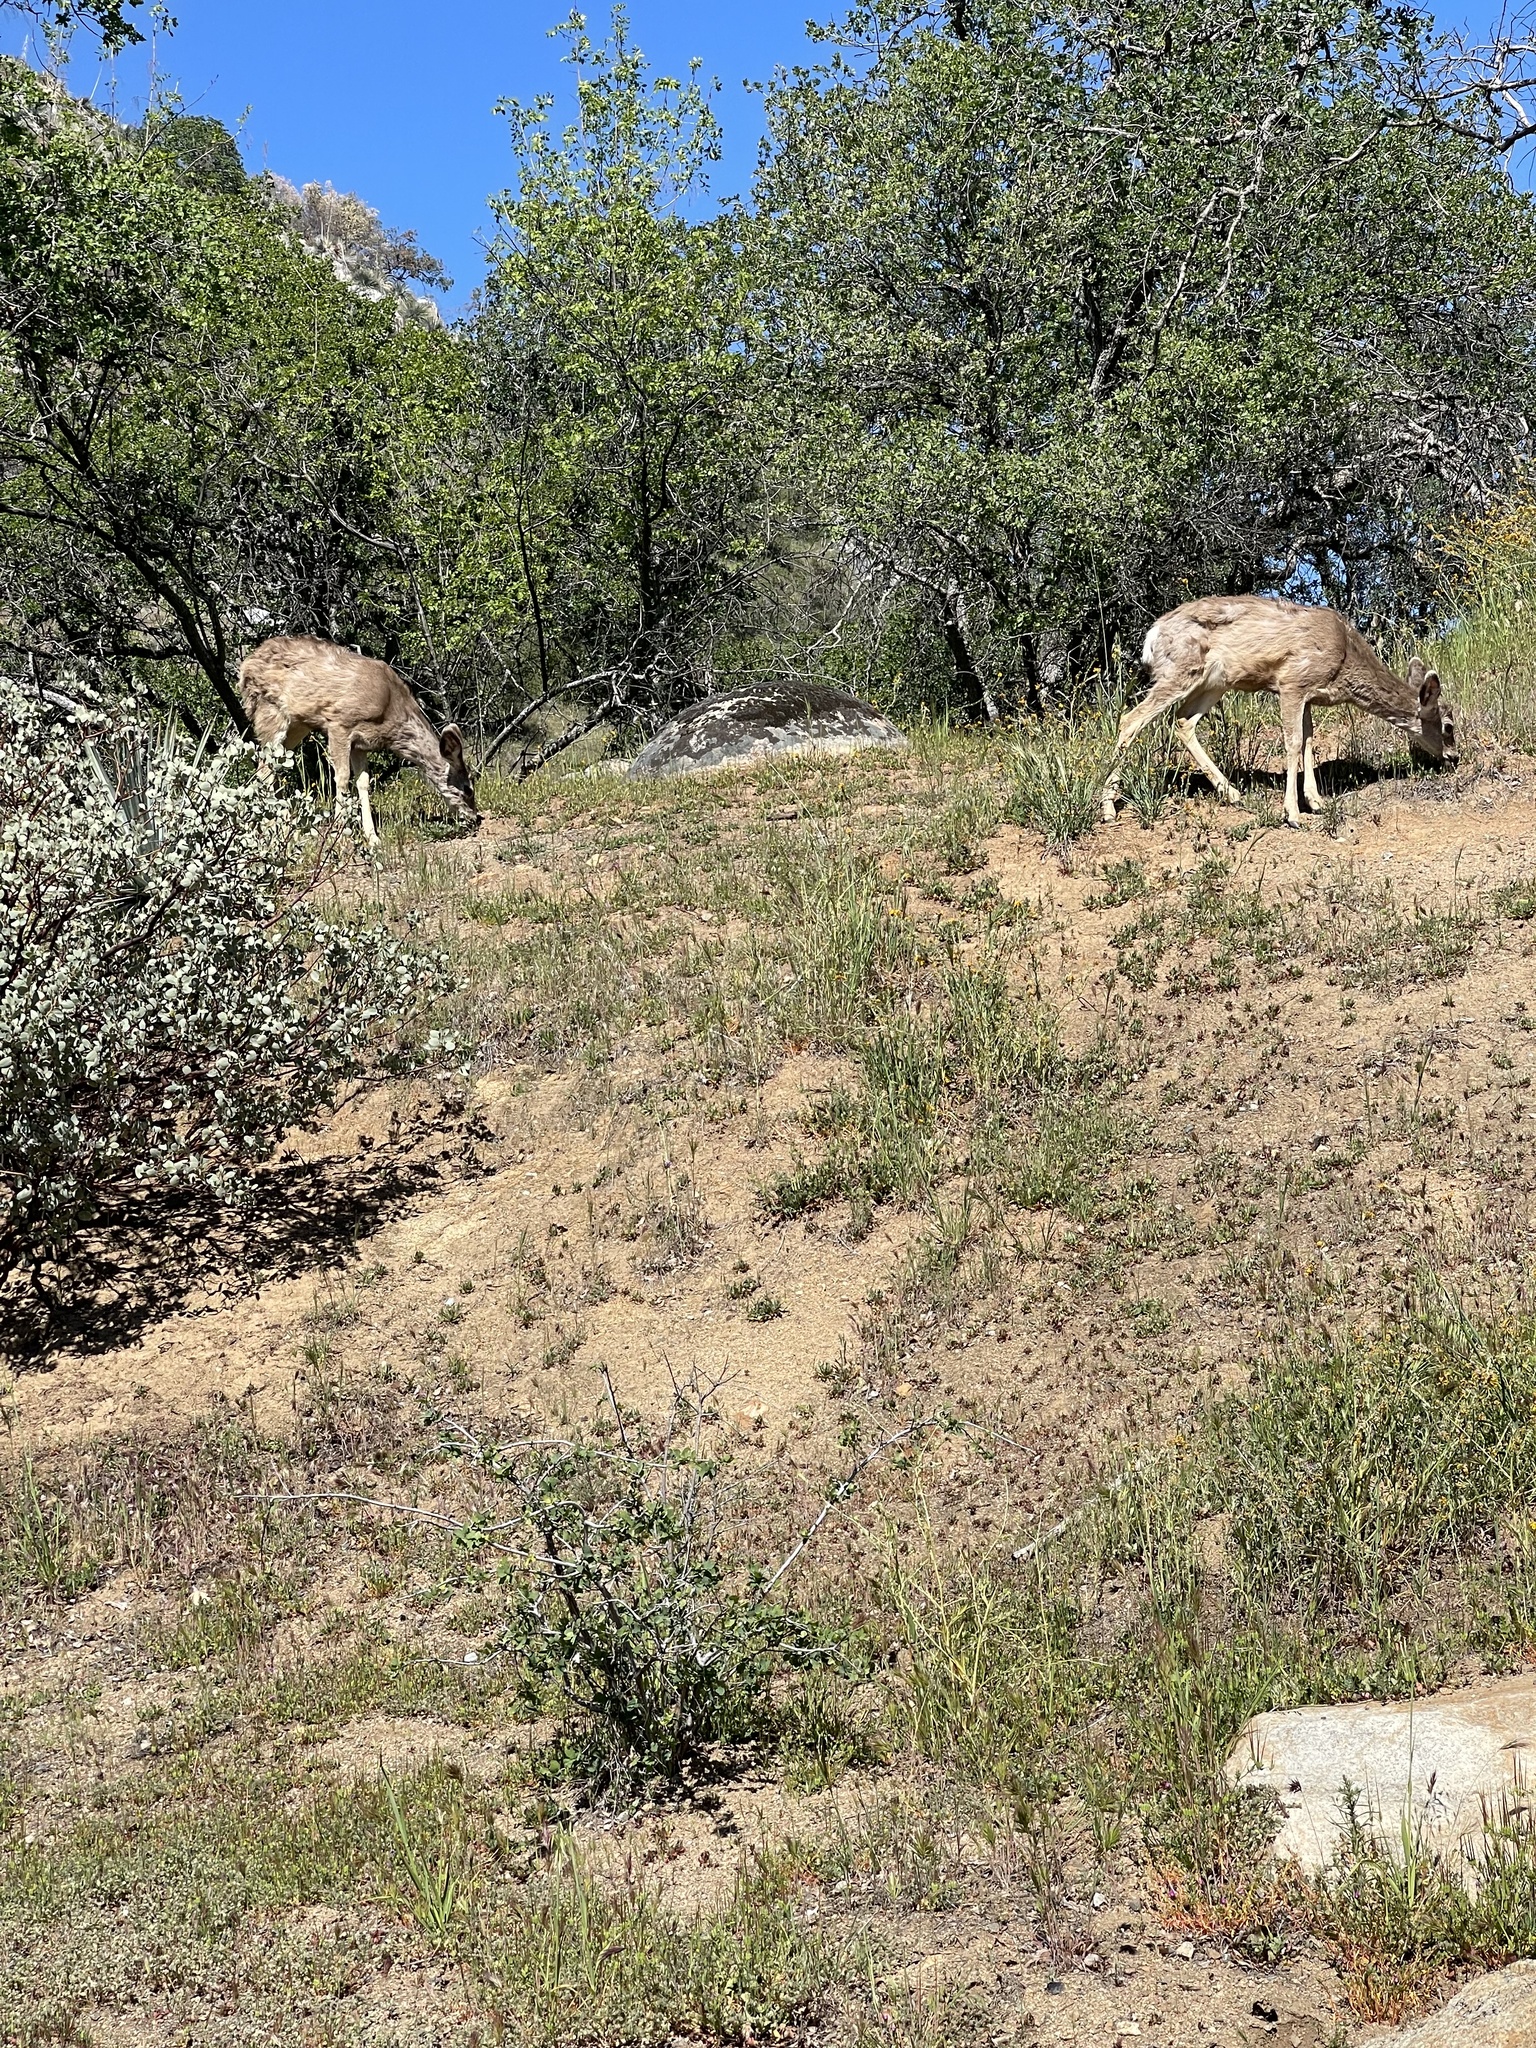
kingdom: Animalia
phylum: Chordata
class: Mammalia
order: Artiodactyla
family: Cervidae
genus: Odocoileus
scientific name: Odocoileus hemionus
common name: Mule deer
